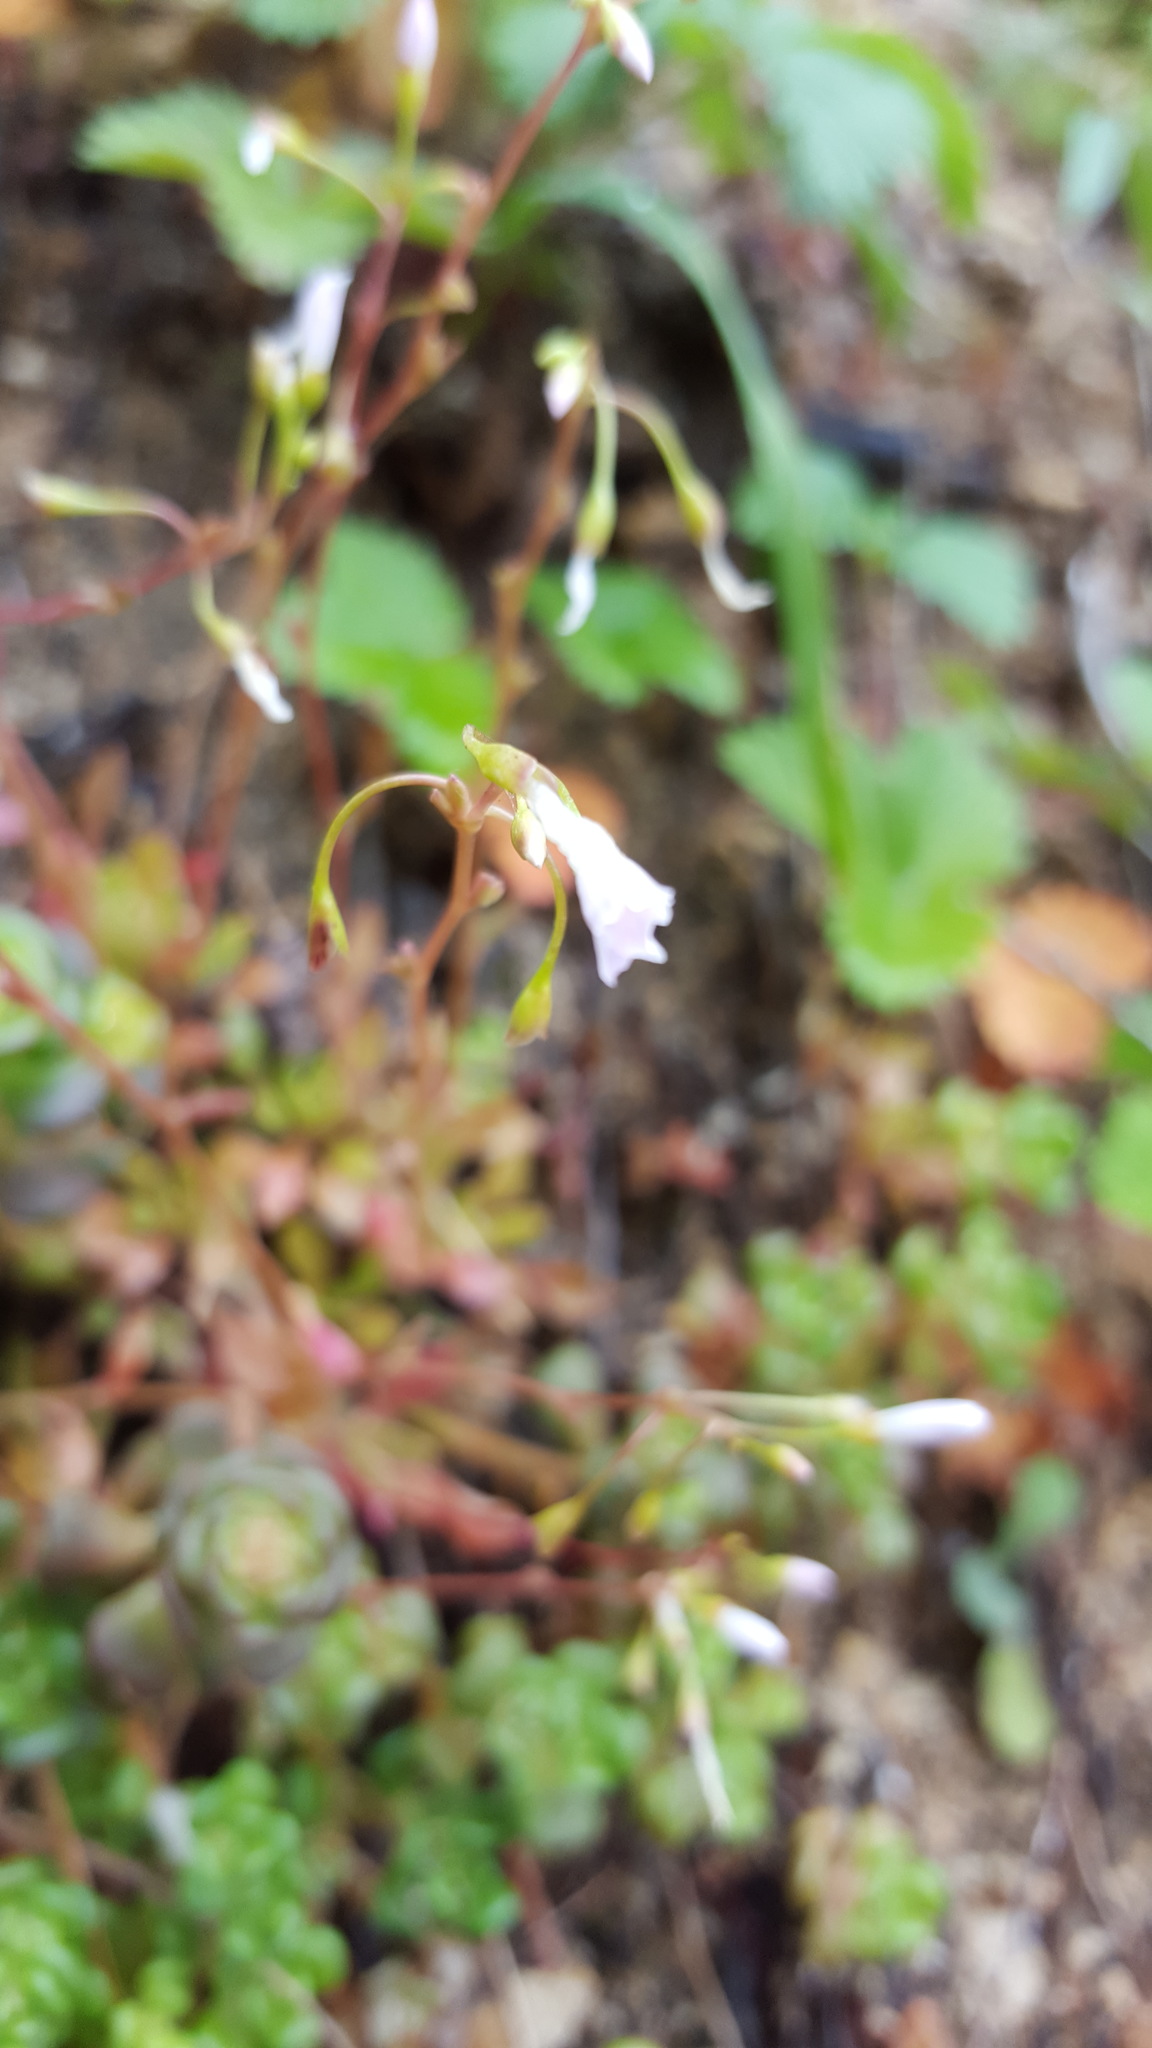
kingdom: Plantae
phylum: Tracheophyta
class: Magnoliopsida
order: Caryophyllales
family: Montiaceae
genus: Montia
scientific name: Montia parvifolia
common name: Small-leaved blinks
